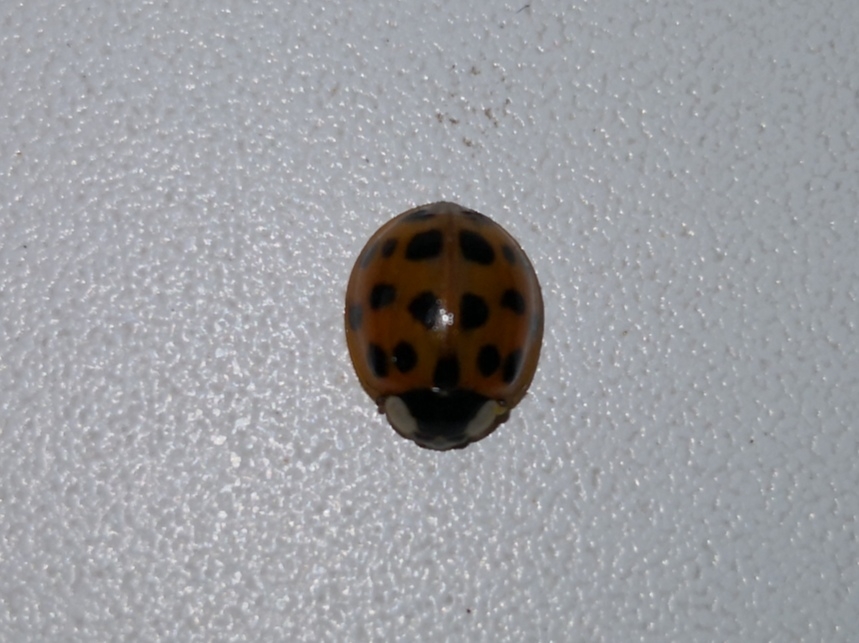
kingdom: Animalia
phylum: Arthropoda
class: Insecta
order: Coleoptera
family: Coccinellidae
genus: Harmonia
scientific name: Harmonia axyridis
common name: Harlequin ladybird
